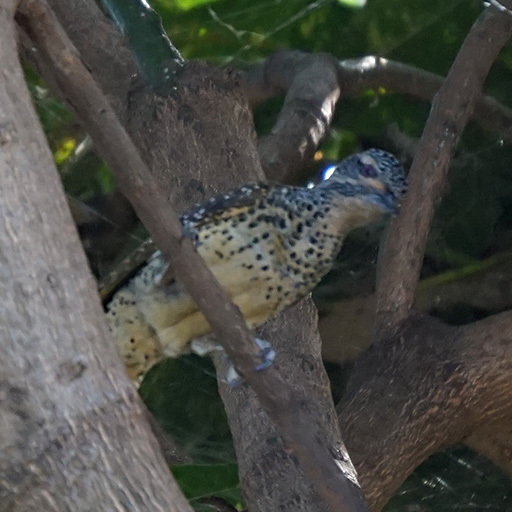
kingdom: Animalia
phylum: Chordata
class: Aves
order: Piciformes
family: Picidae
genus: Campethera
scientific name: Campethera nubica
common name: Nubian woodpecker
